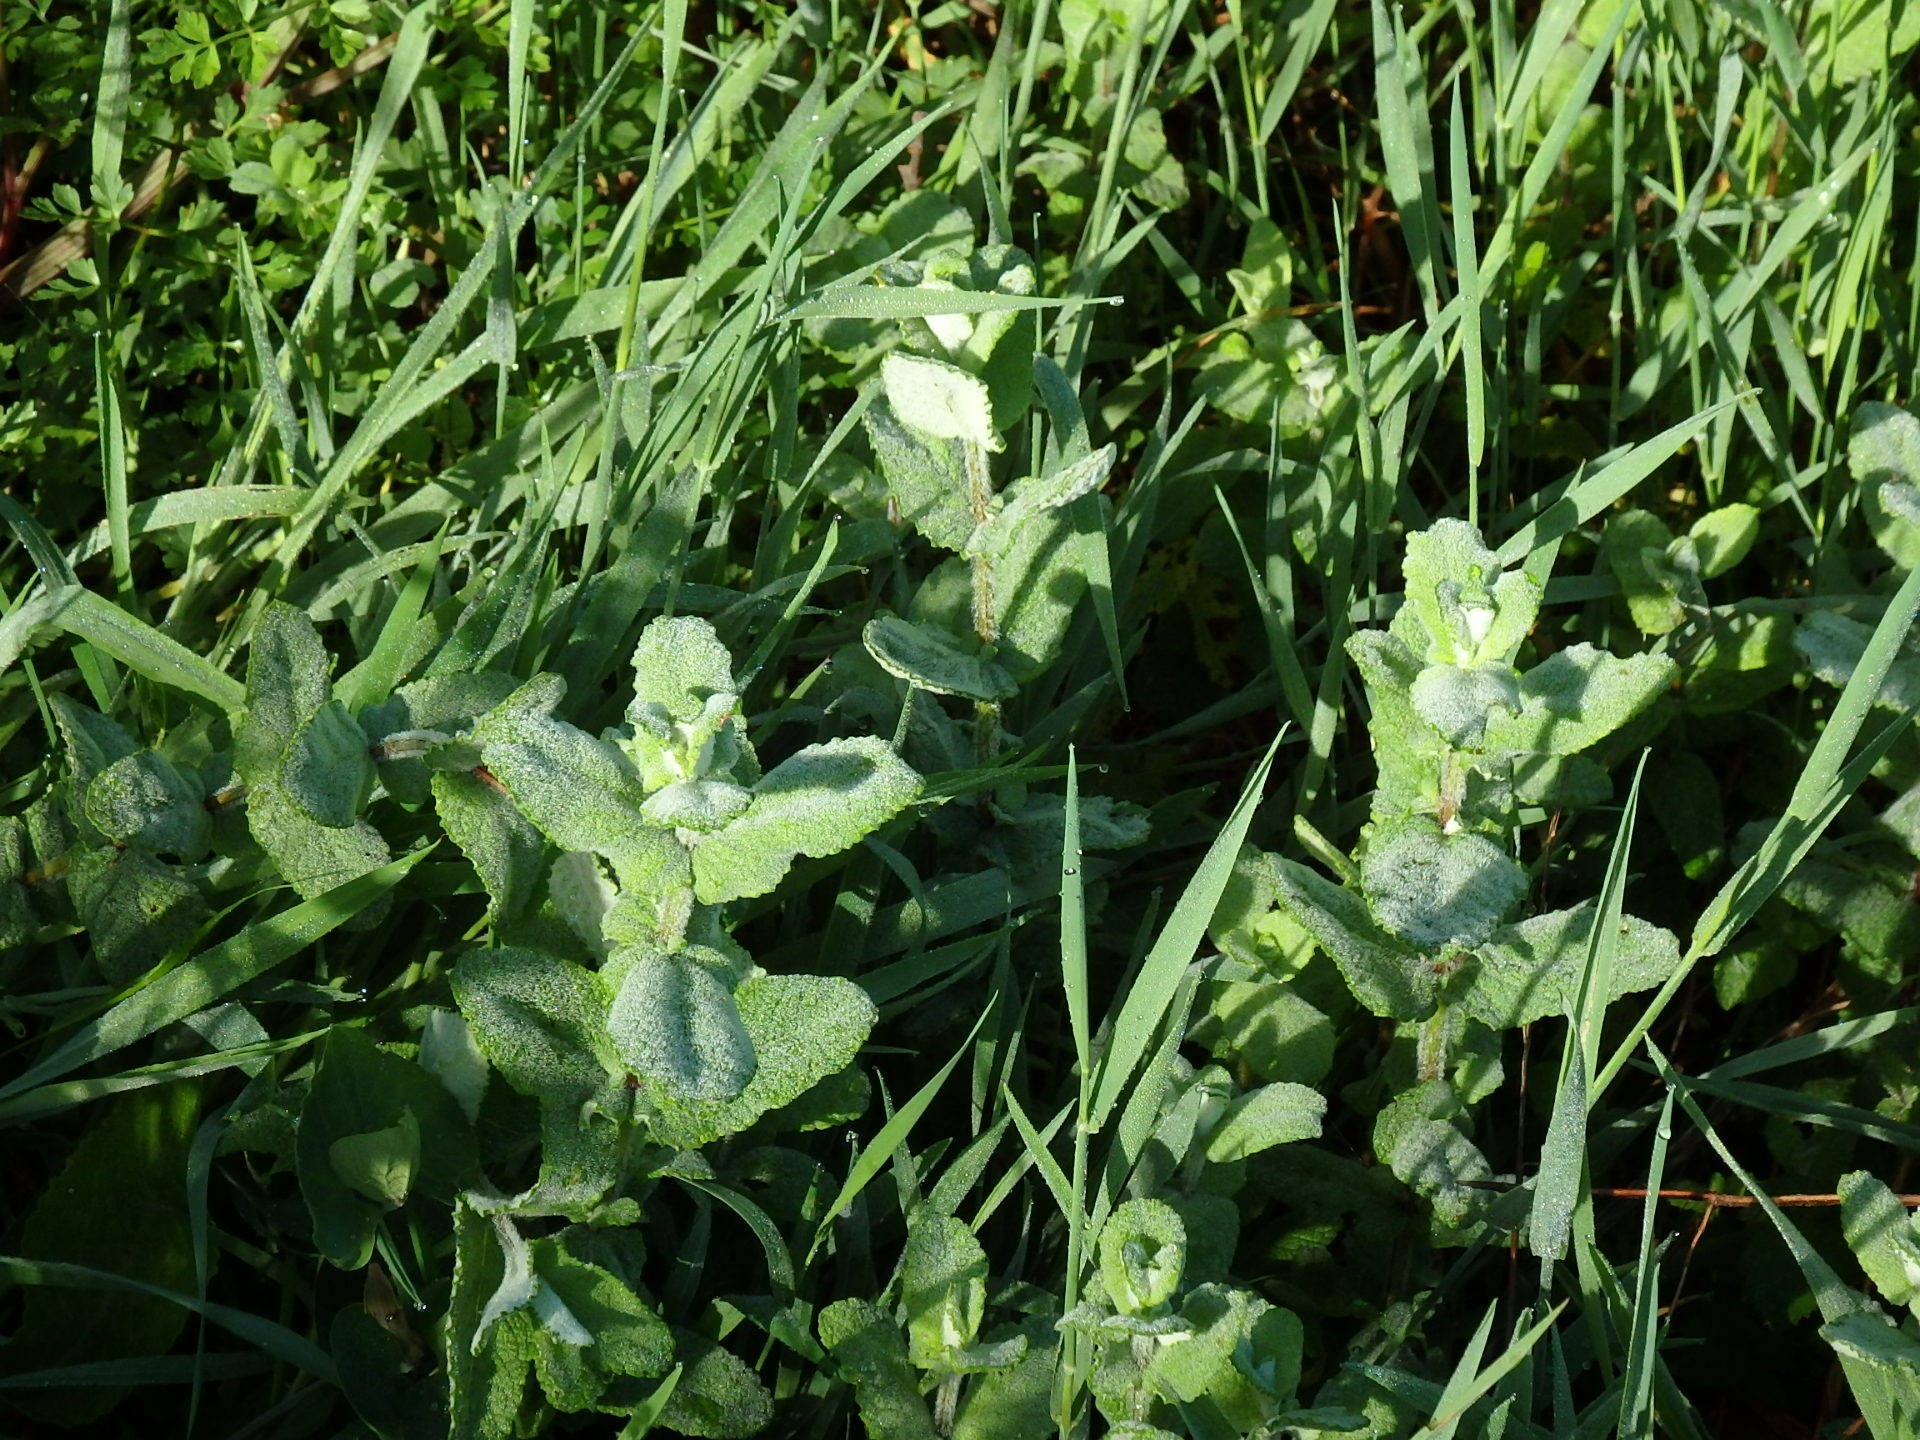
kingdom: Plantae
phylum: Tracheophyta
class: Magnoliopsida
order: Lamiales
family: Lamiaceae
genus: Mentha
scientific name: Mentha suaveolens
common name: Apple mint
